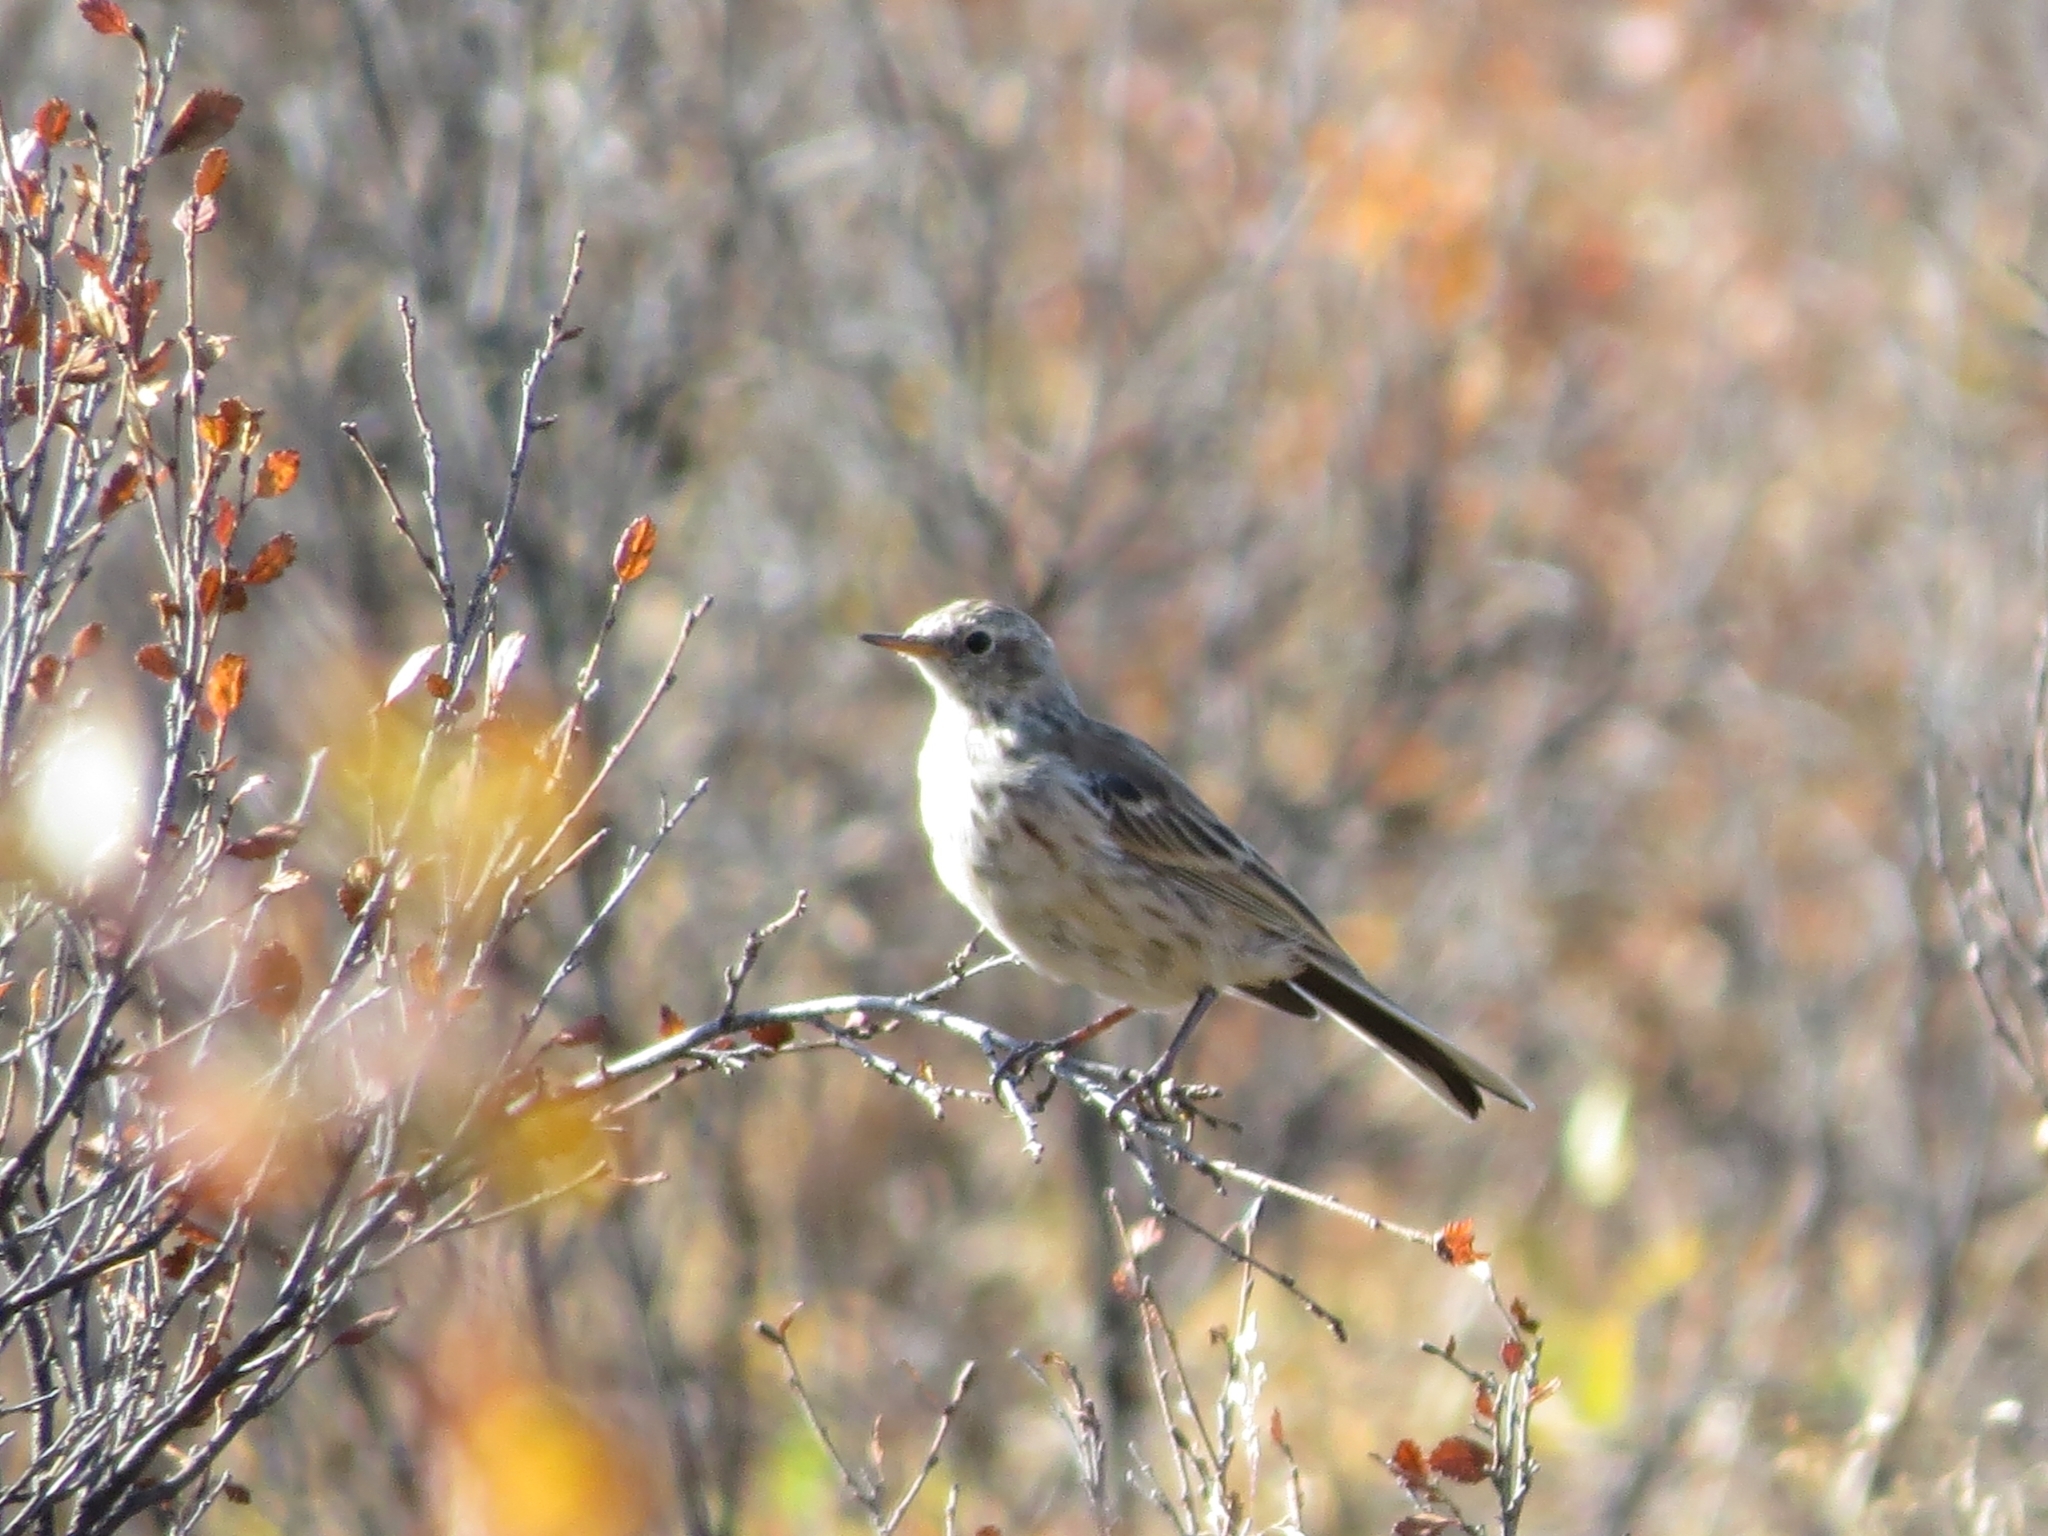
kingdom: Animalia
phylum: Chordata
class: Aves
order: Passeriformes
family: Motacillidae
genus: Anthus
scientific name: Anthus spinoletta
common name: Water pipit
